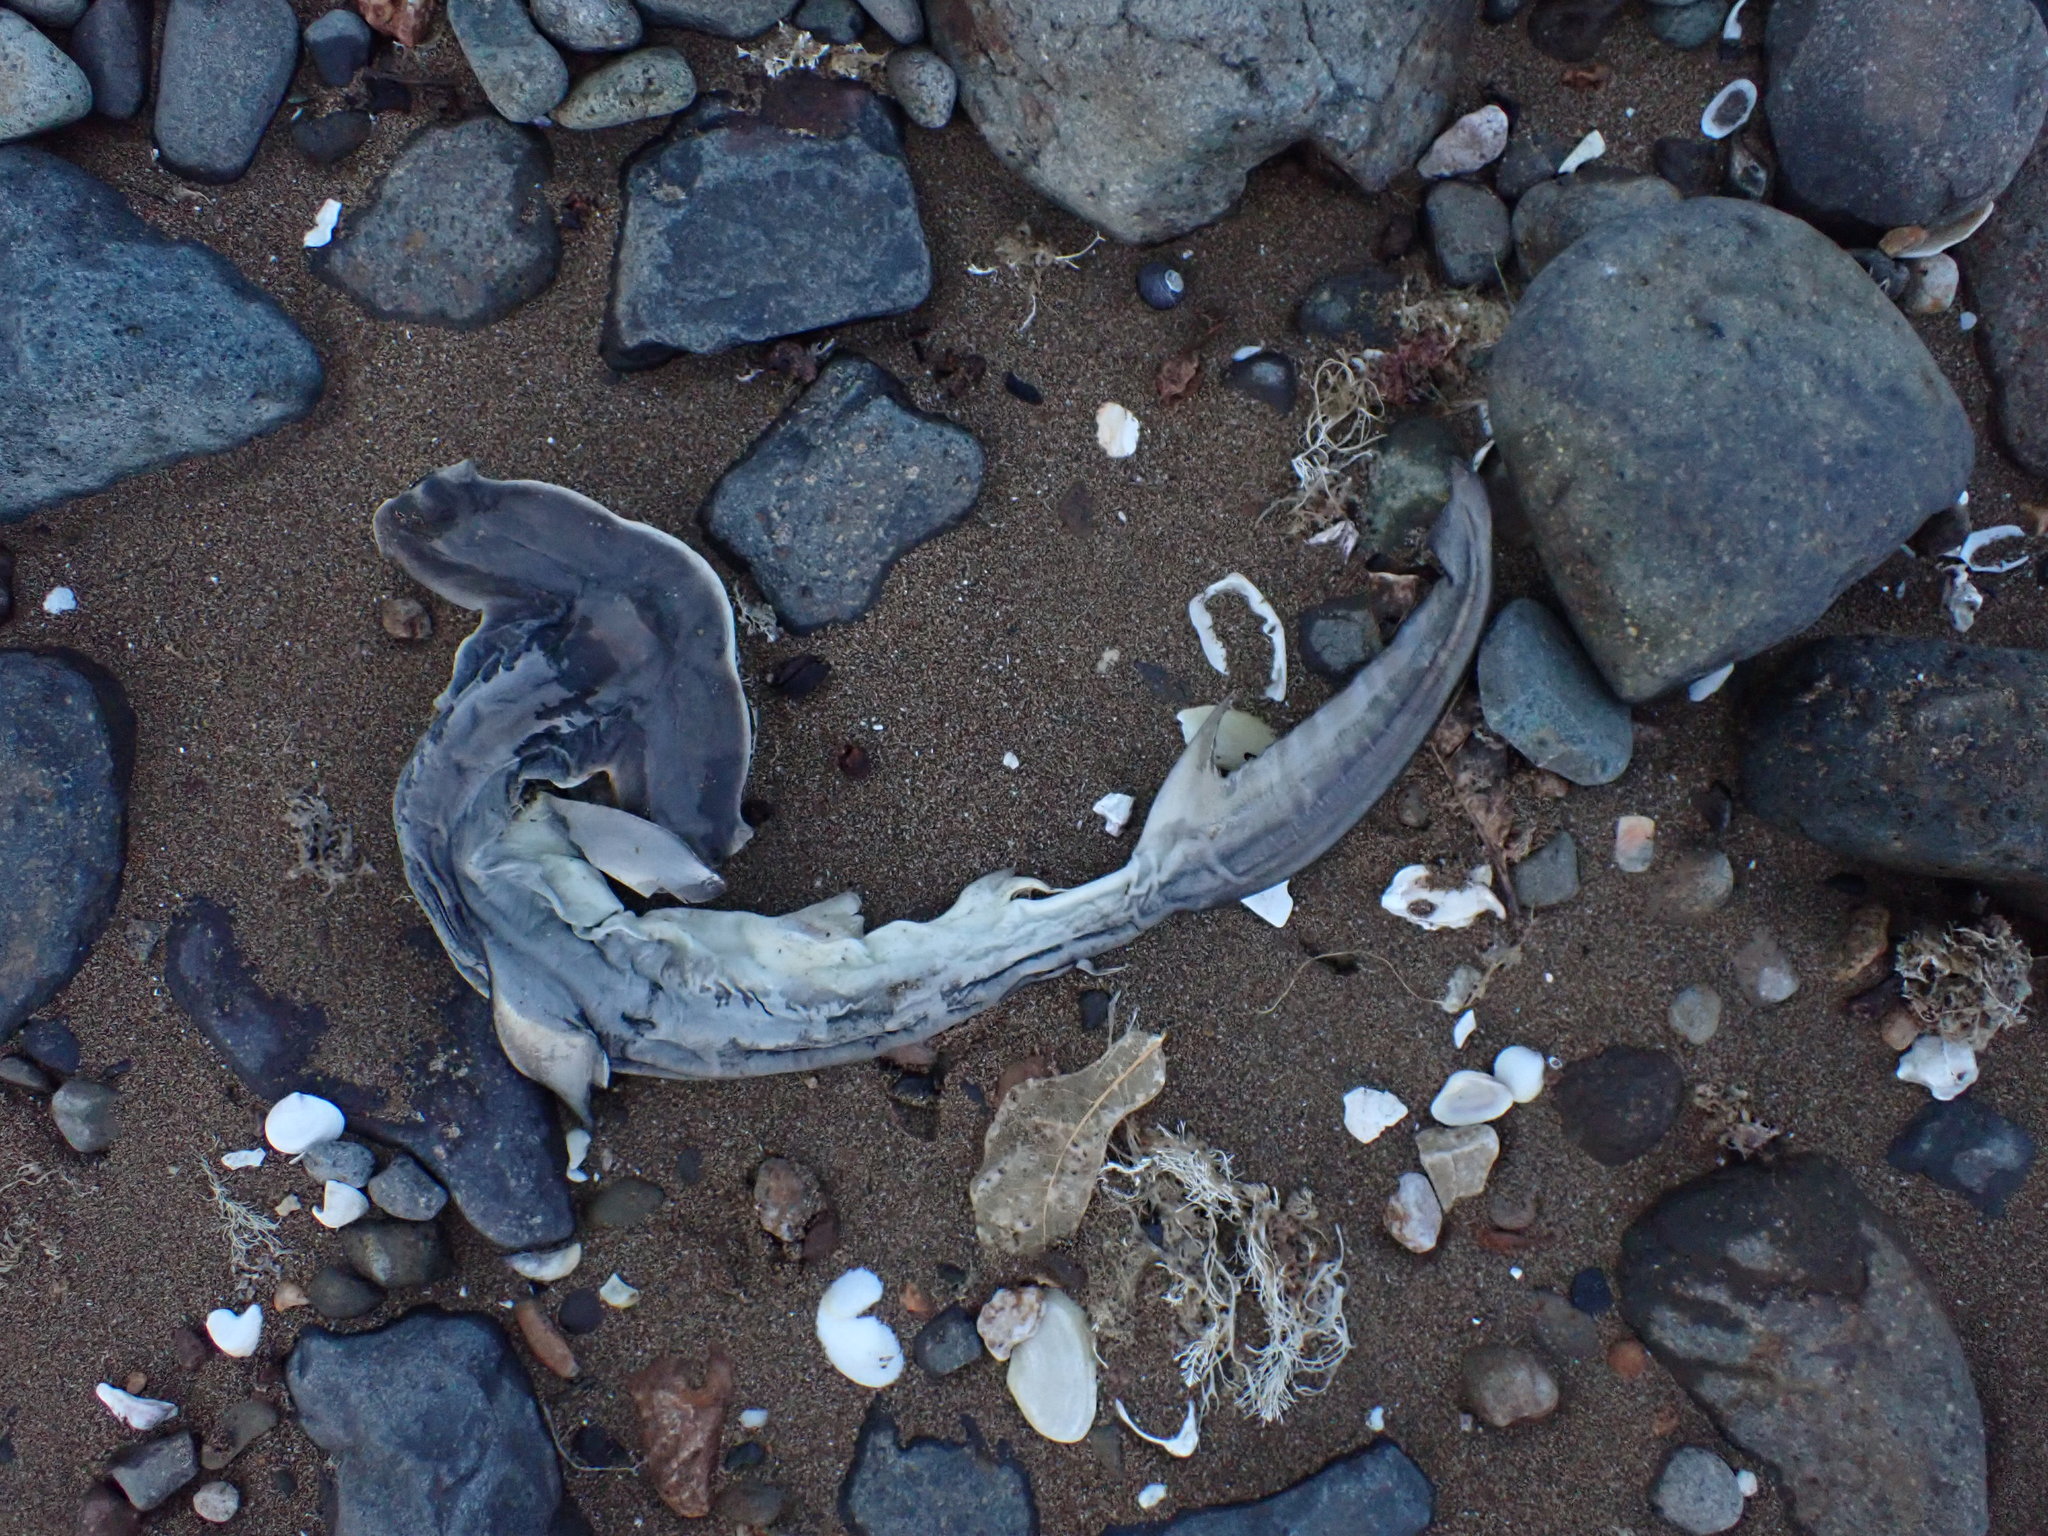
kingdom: Animalia
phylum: Chordata
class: Elasmobranchii
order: Carcharhiniformes
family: Sphyrnidae
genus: Sphyrna
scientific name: Sphyrna zygaena
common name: Smooth hammerhead
